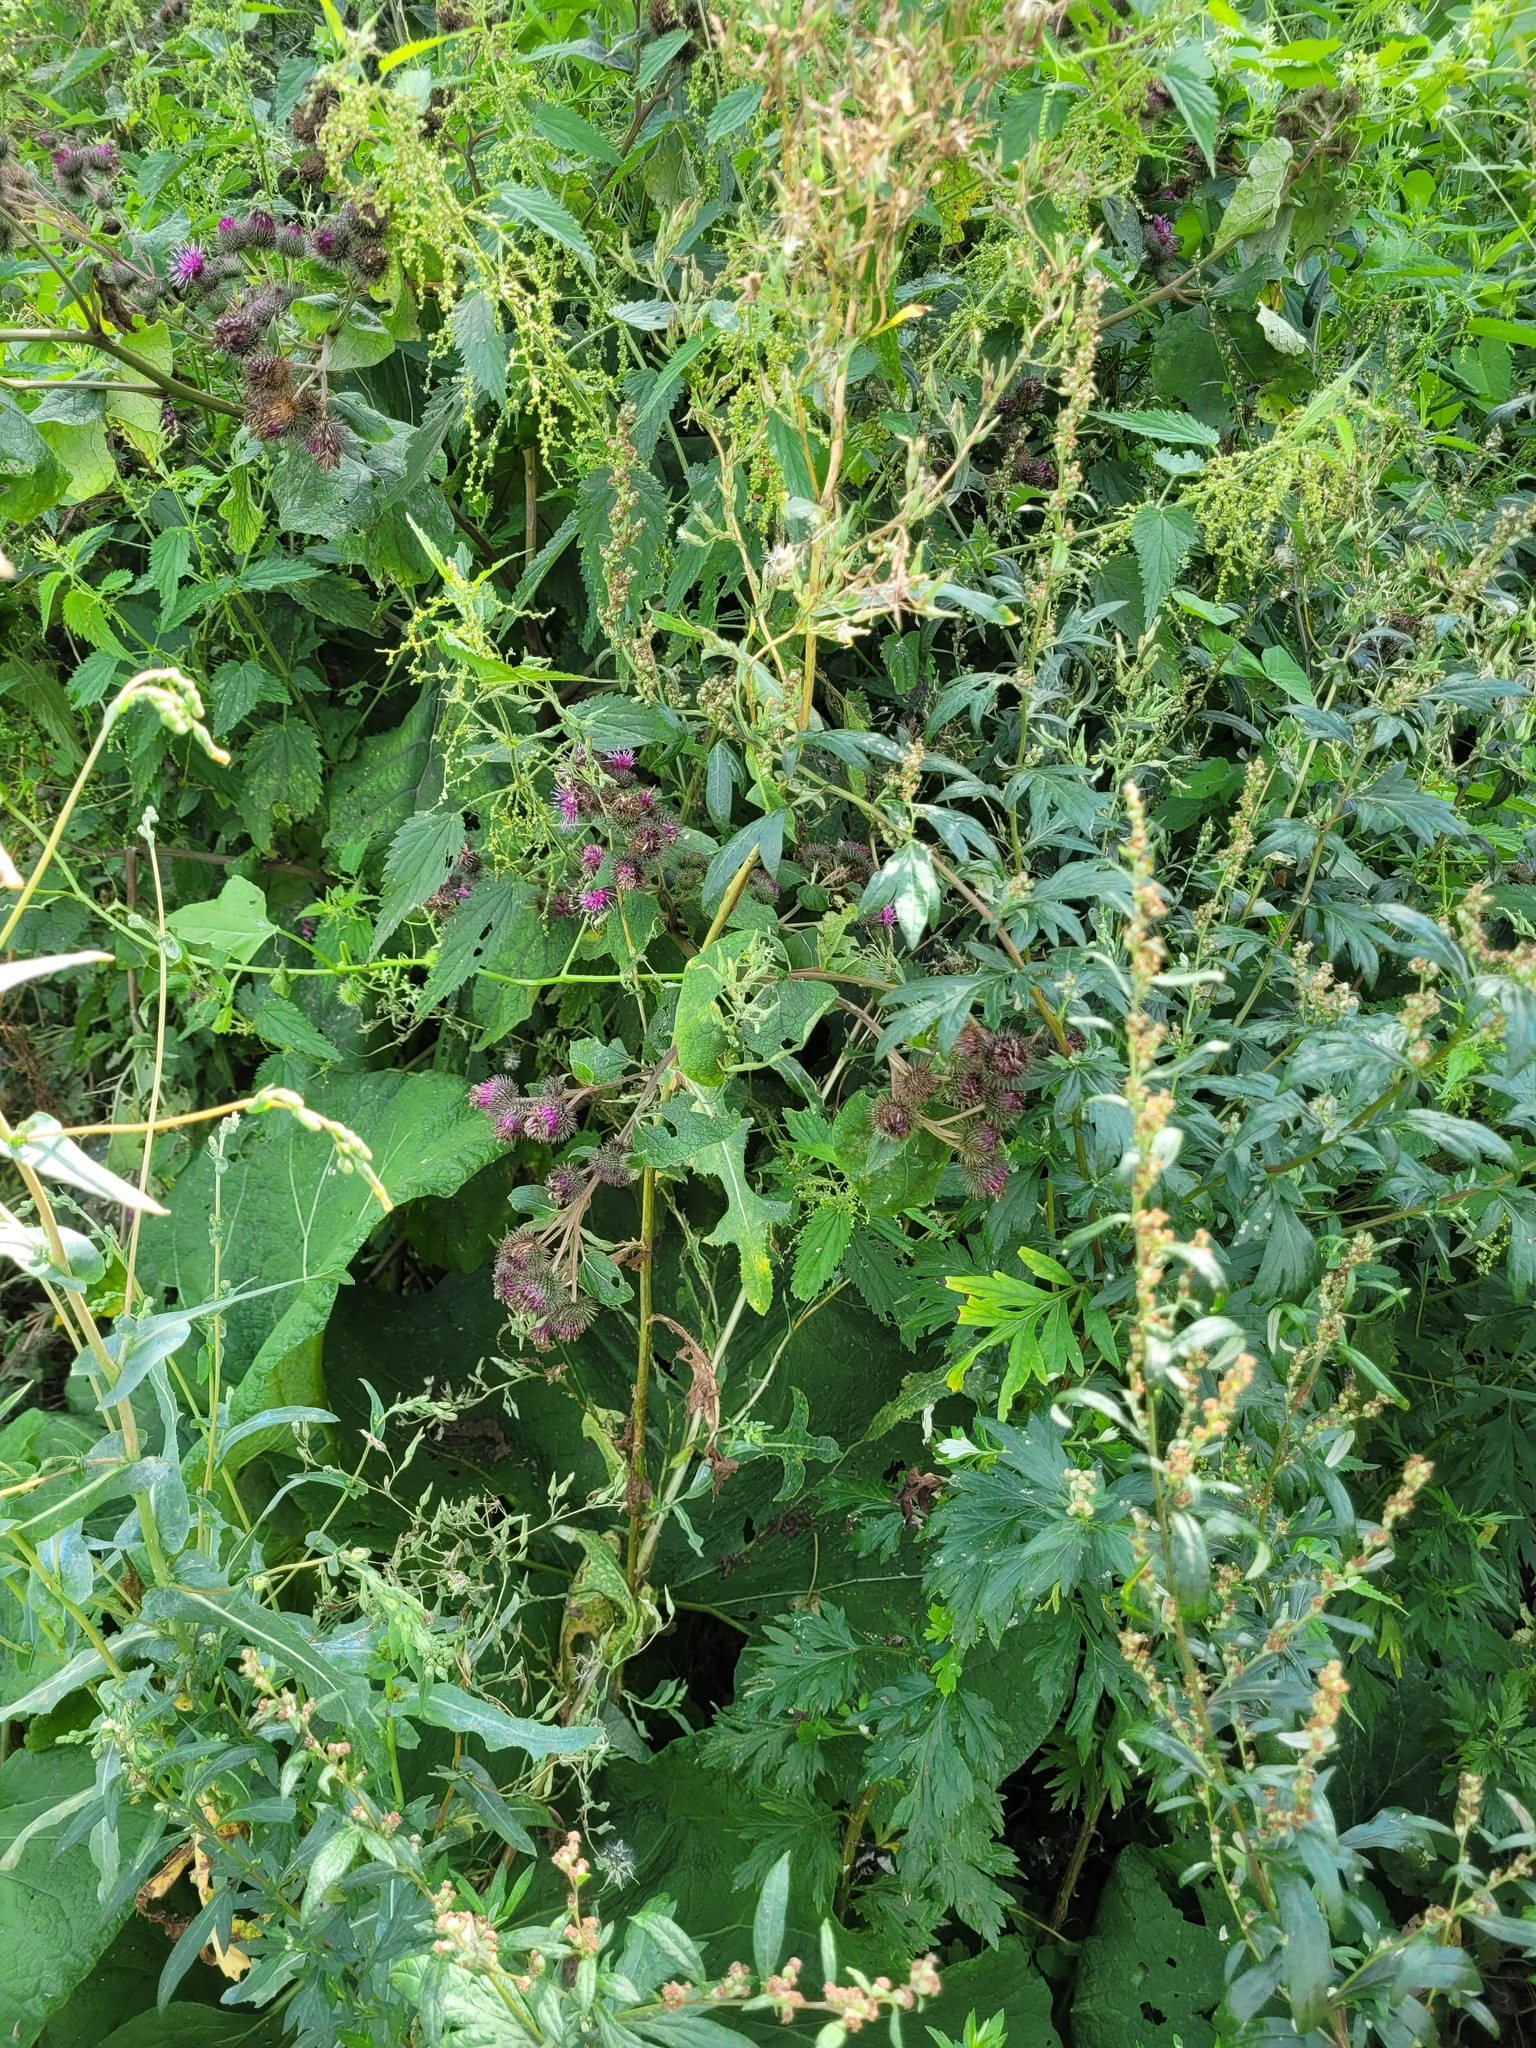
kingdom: Plantae
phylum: Tracheophyta
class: Magnoliopsida
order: Asterales
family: Asteraceae
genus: Arctium
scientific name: Arctium tomentosum
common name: Woolly burdock
